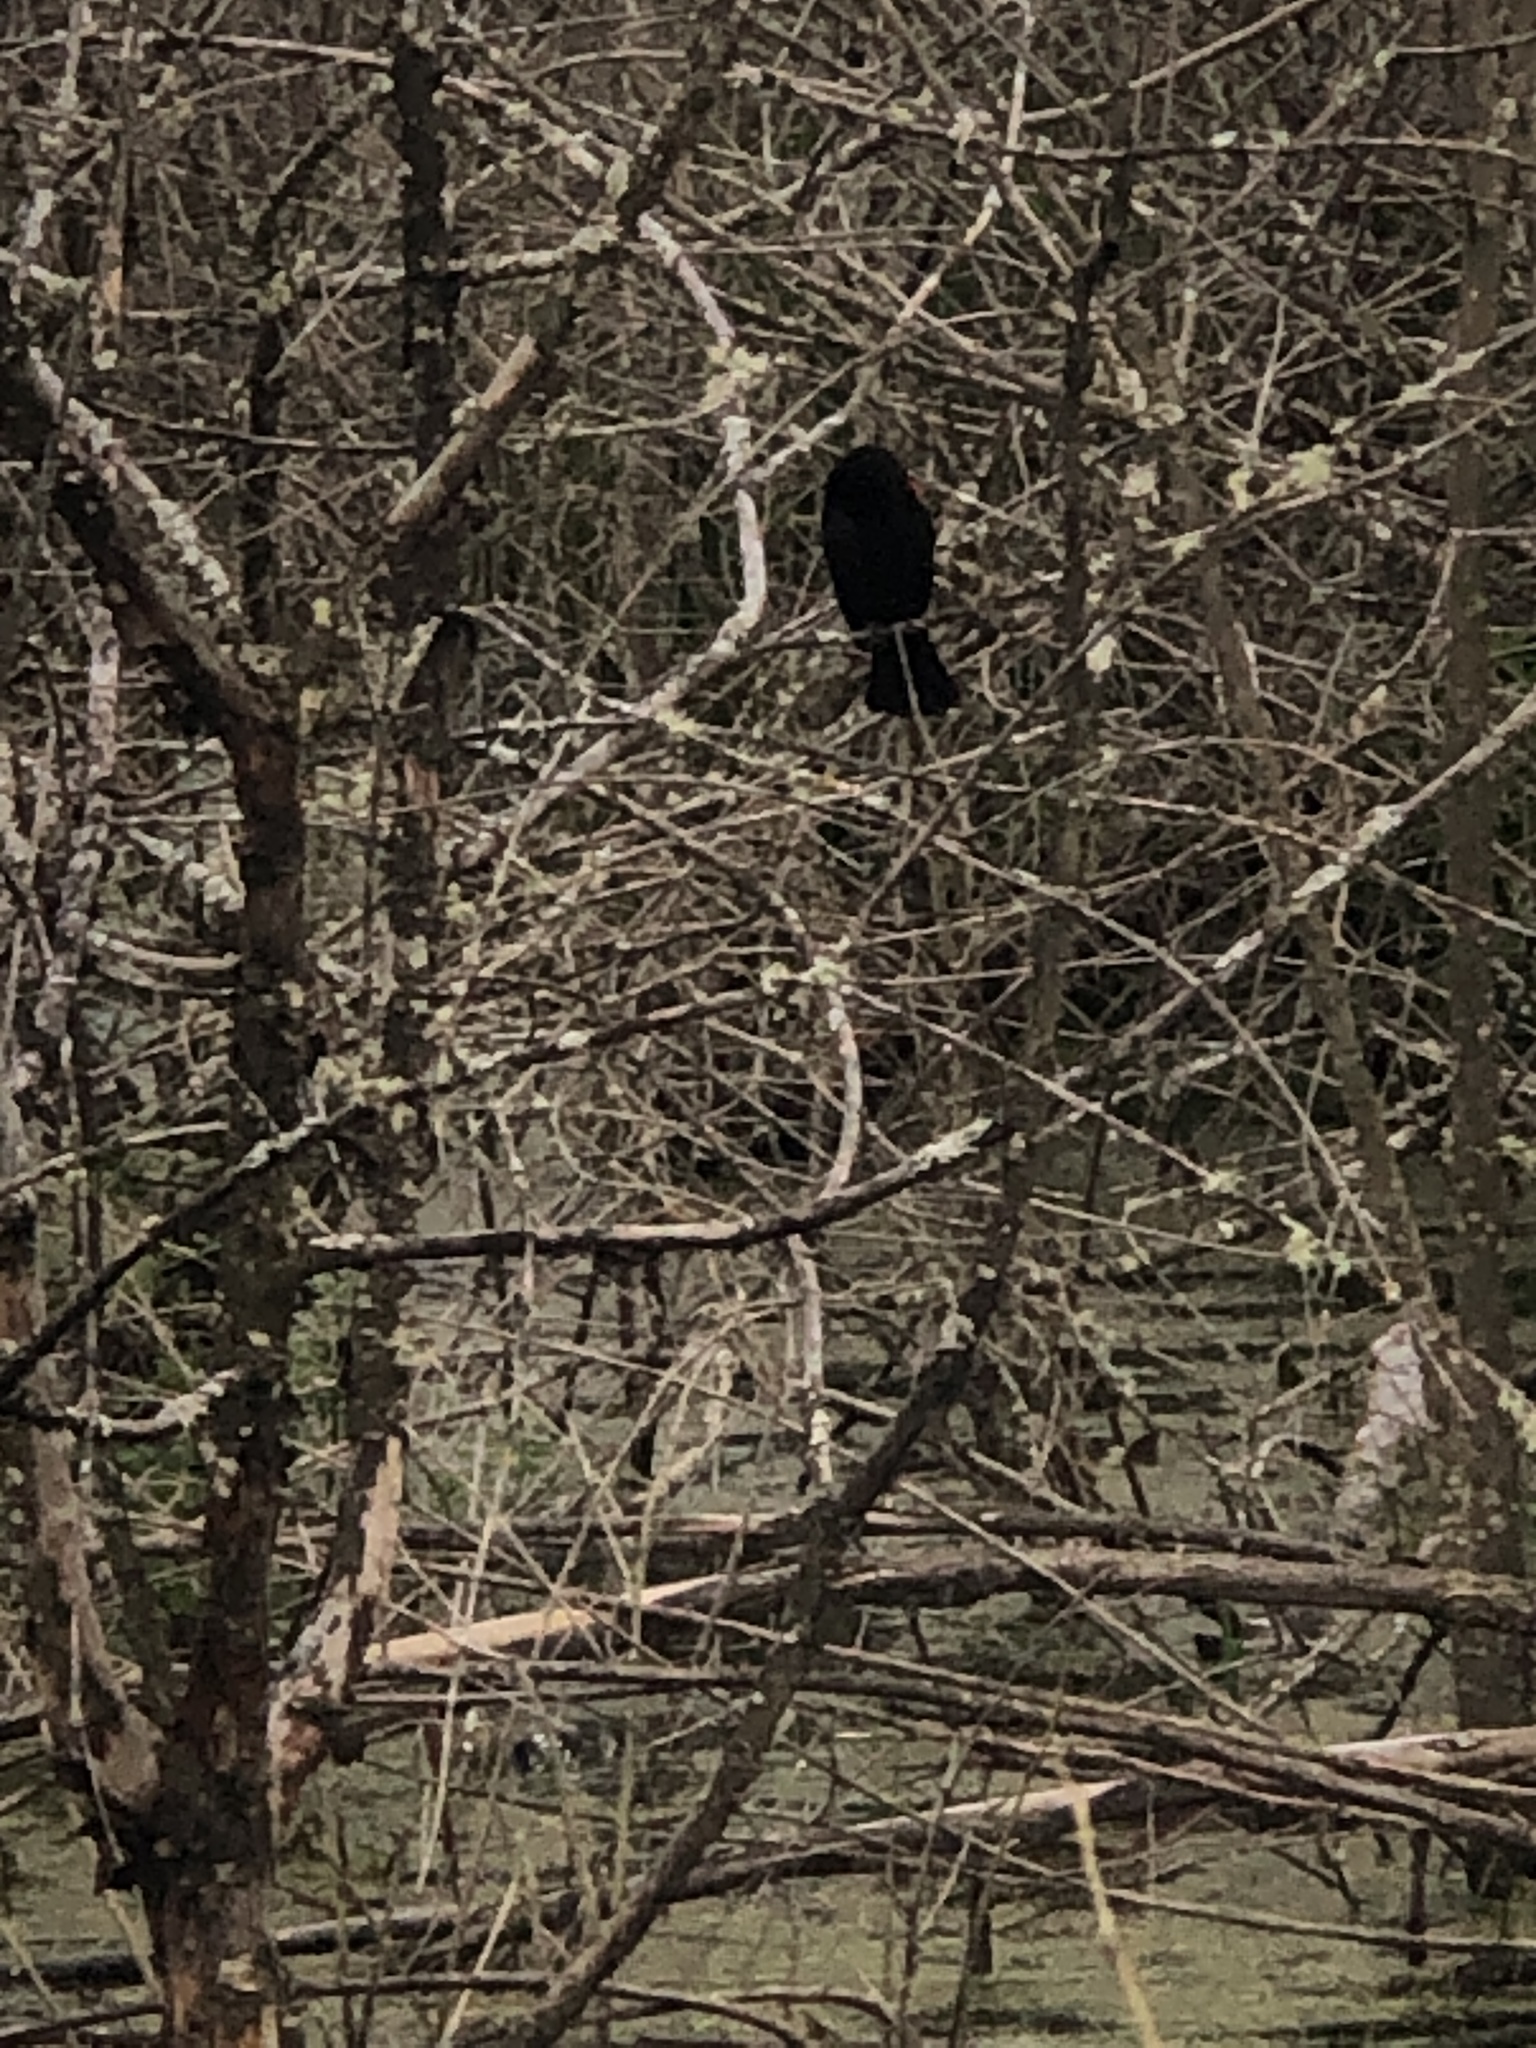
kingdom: Animalia
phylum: Chordata
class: Aves
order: Passeriformes
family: Icteridae
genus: Agelaius
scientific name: Agelaius phoeniceus
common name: Red-winged blackbird
